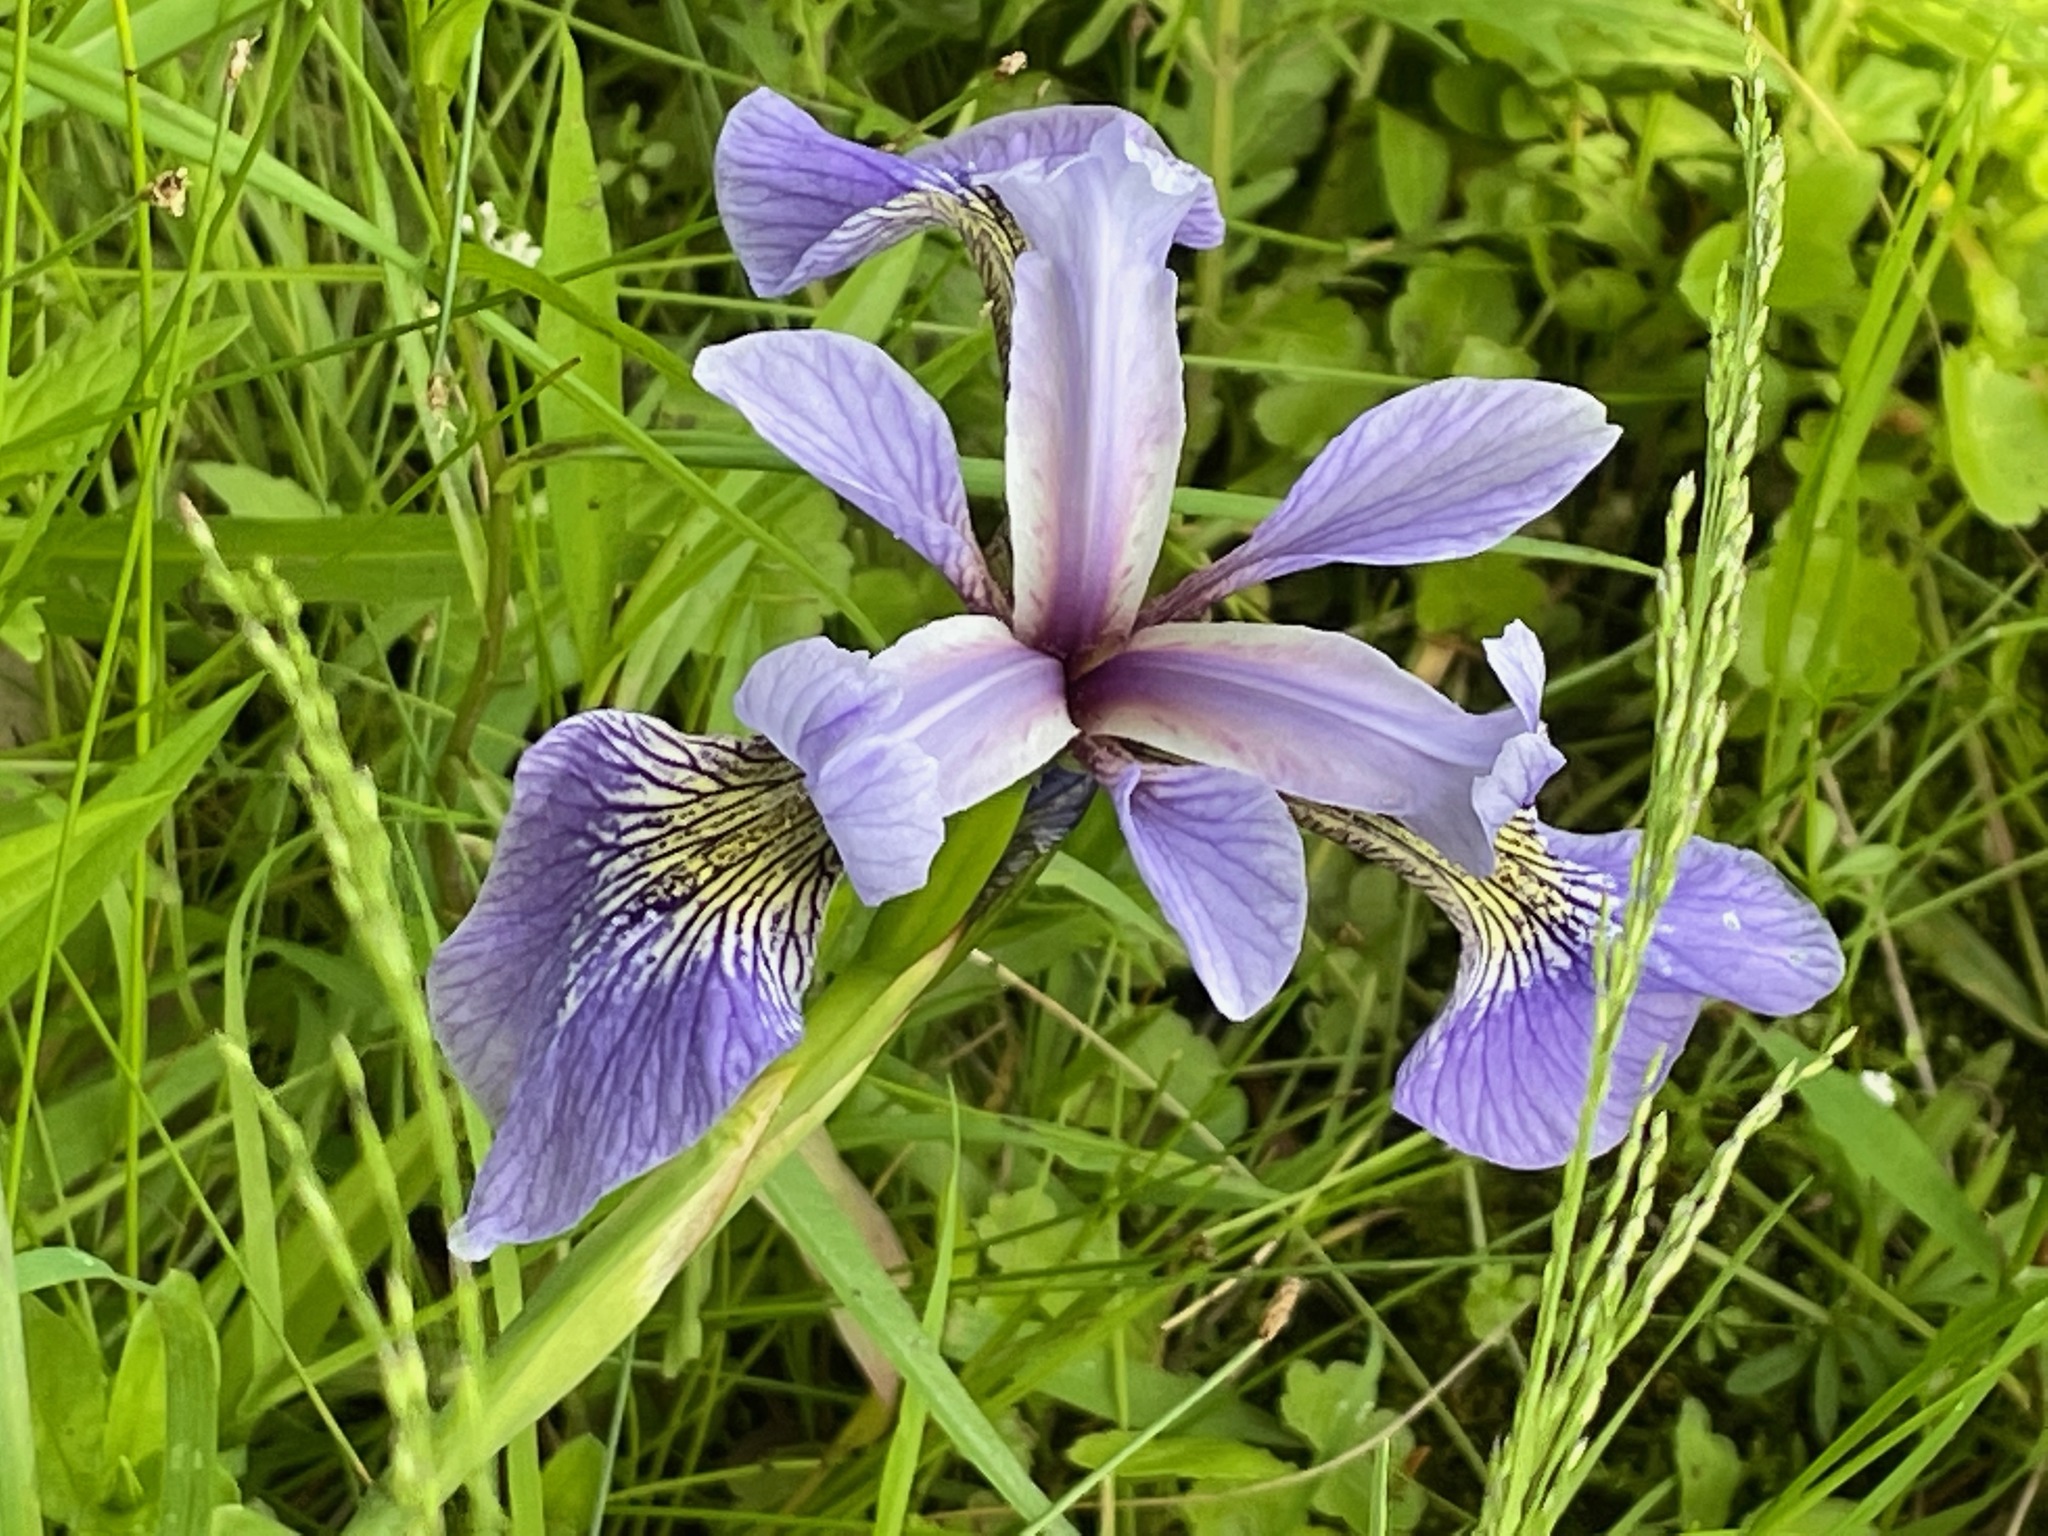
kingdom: Plantae
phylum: Tracheophyta
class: Liliopsida
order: Asparagales
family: Iridaceae
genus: Iris
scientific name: Iris versicolor
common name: Purple iris
